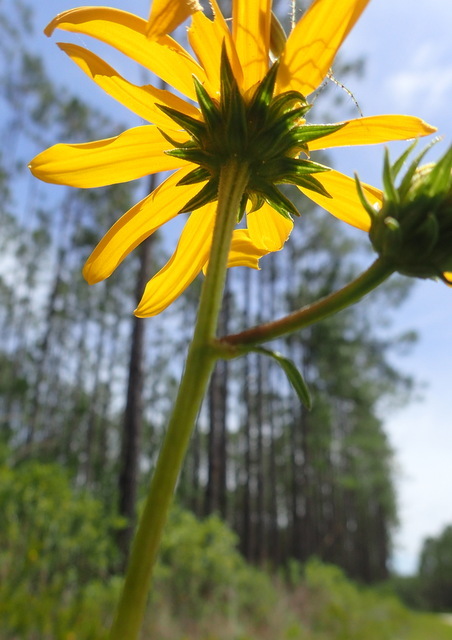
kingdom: Plantae
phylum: Tracheophyta
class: Magnoliopsida
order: Asterales
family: Asteraceae
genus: Helianthus
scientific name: Helianthus angustifolius
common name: Swamp sunflower
